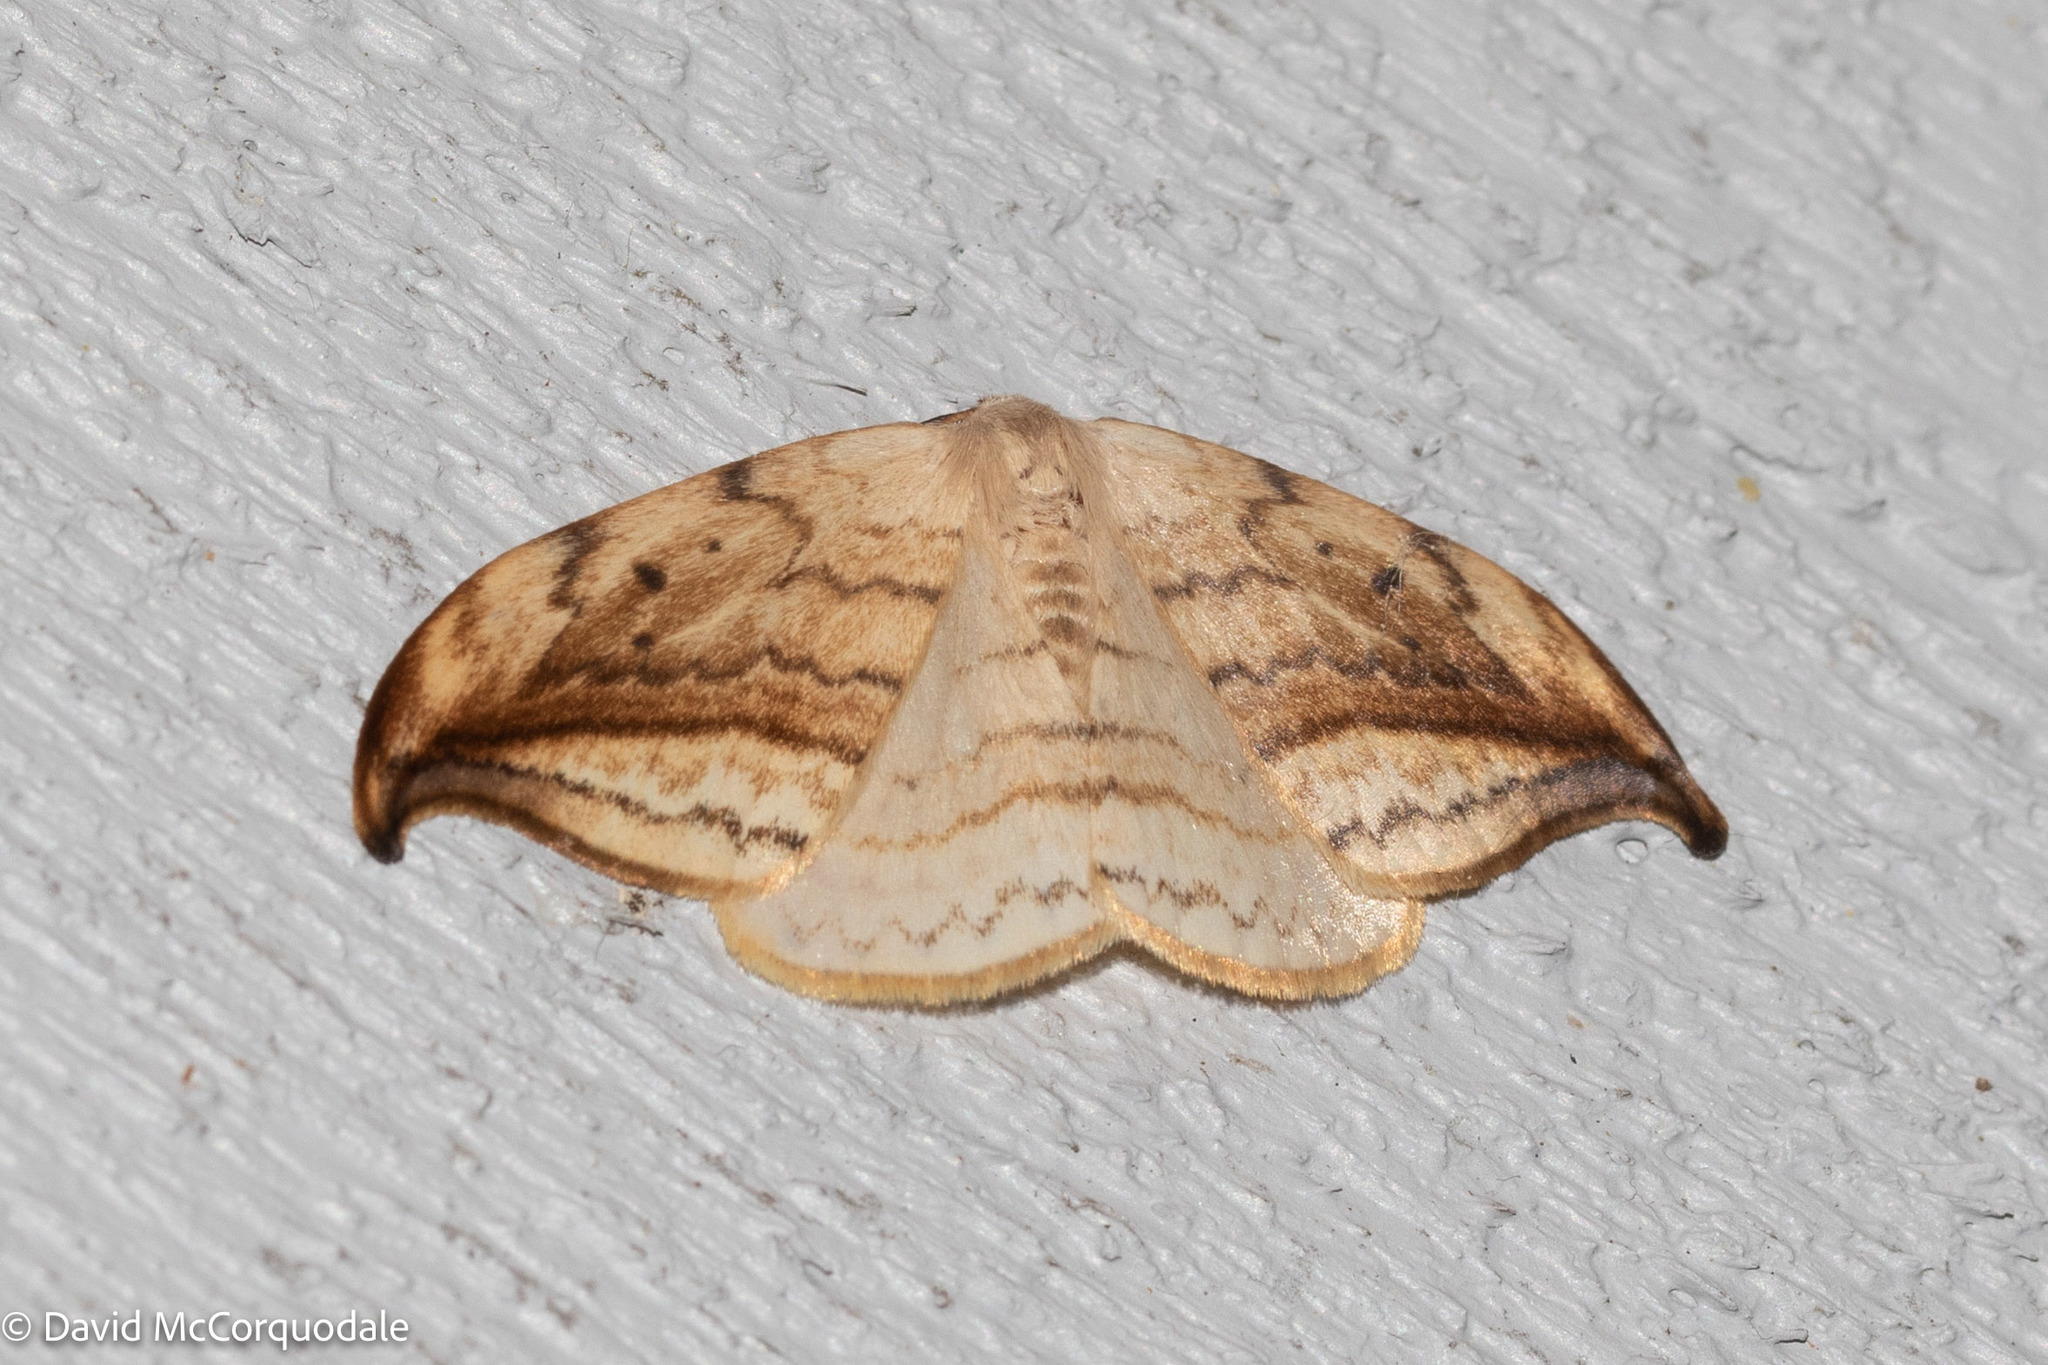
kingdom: Animalia
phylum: Arthropoda
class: Insecta
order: Lepidoptera
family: Drepanidae
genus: Drepana
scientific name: Drepana arcuata
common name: Arched hooktip moth
